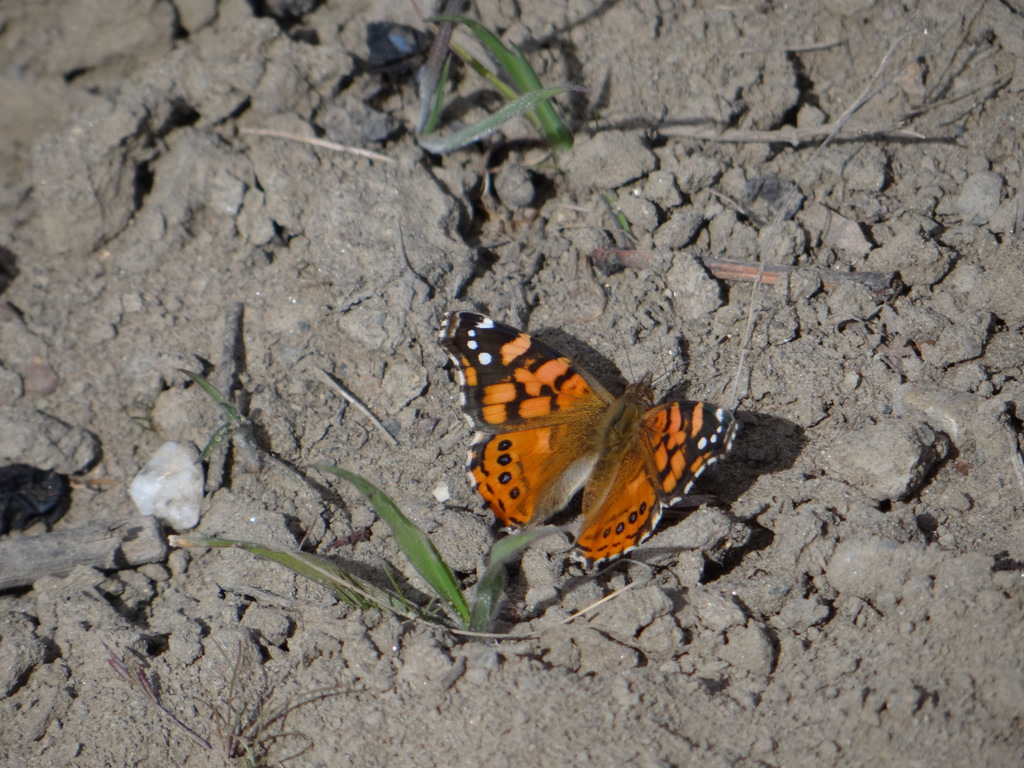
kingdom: Animalia
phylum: Arthropoda
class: Insecta
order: Lepidoptera
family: Nymphalidae
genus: Vanessa
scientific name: Vanessa carye
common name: Subtropical lady
